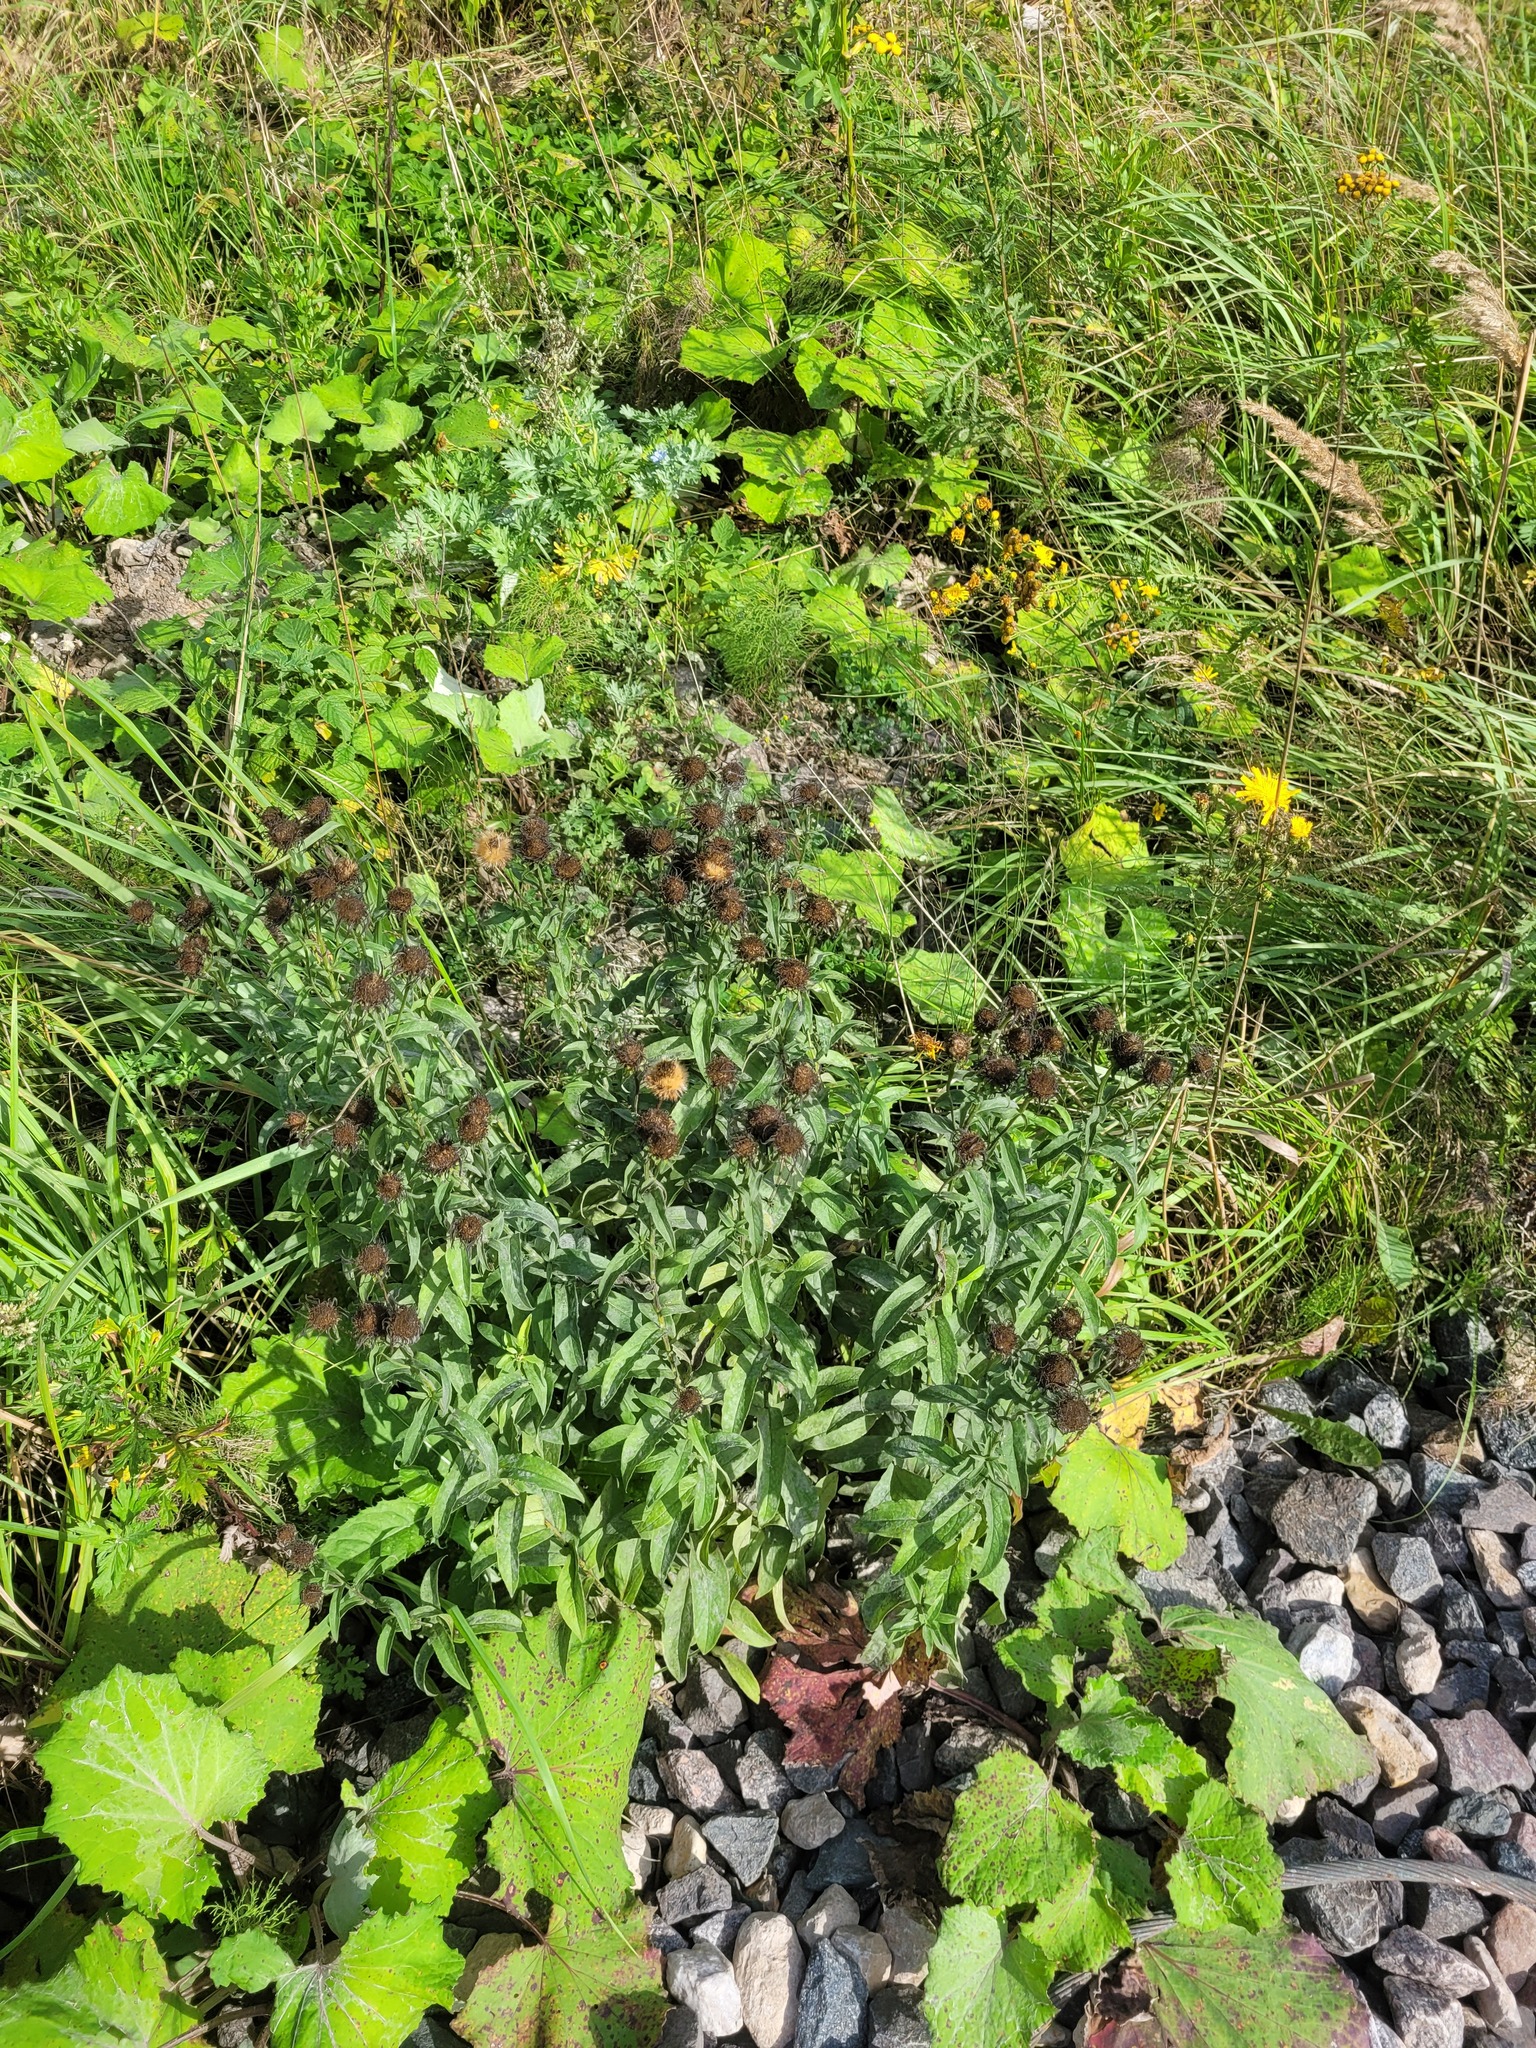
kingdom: Plantae
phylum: Tracheophyta
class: Magnoliopsida
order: Asterales
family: Asteraceae
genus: Pentanema
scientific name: Pentanema salicinum
